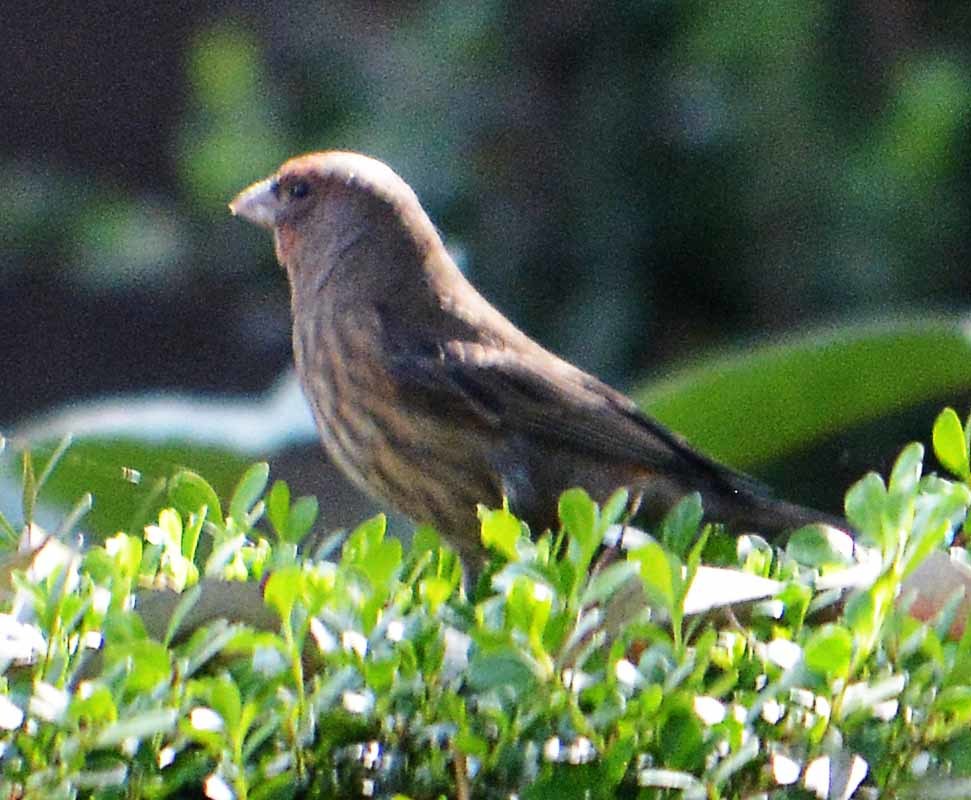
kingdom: Animalia
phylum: Chordata
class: Aves
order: Passeriformes
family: Fringillidae
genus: Haemorhous
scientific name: Haemorhous mexicanus
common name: House finch
